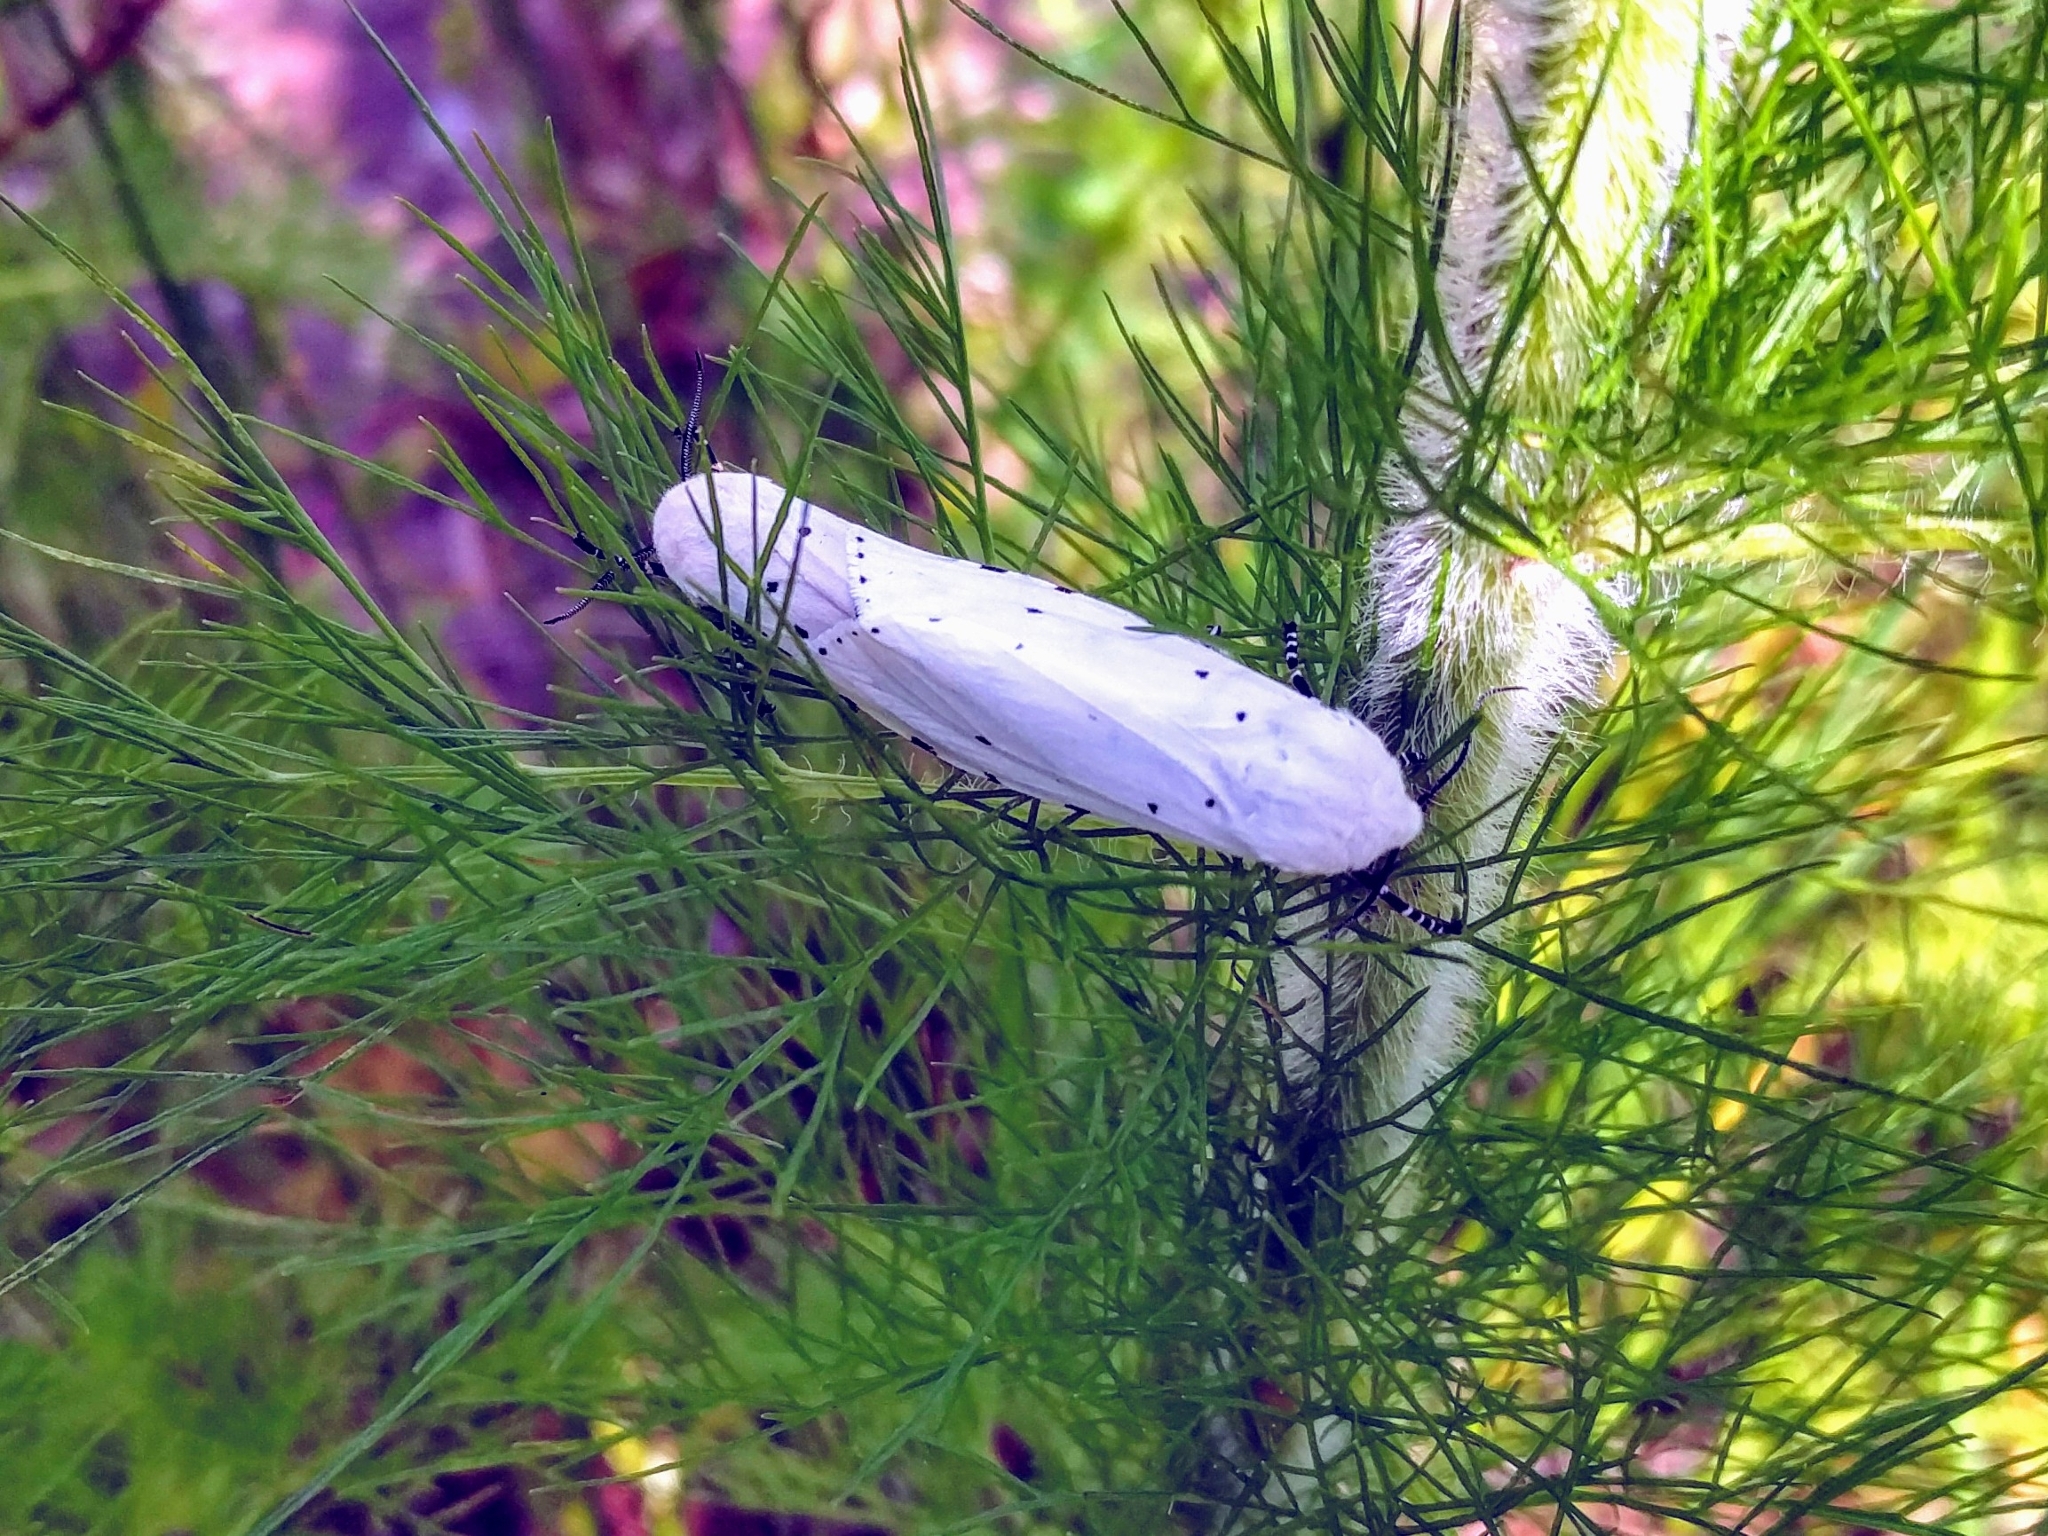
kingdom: Animalia
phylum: Arthropoda
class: Insecta
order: Lepidoptera
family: Erebidae
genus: Estigmene
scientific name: Estigmene acrea
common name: Salt marsh moth
